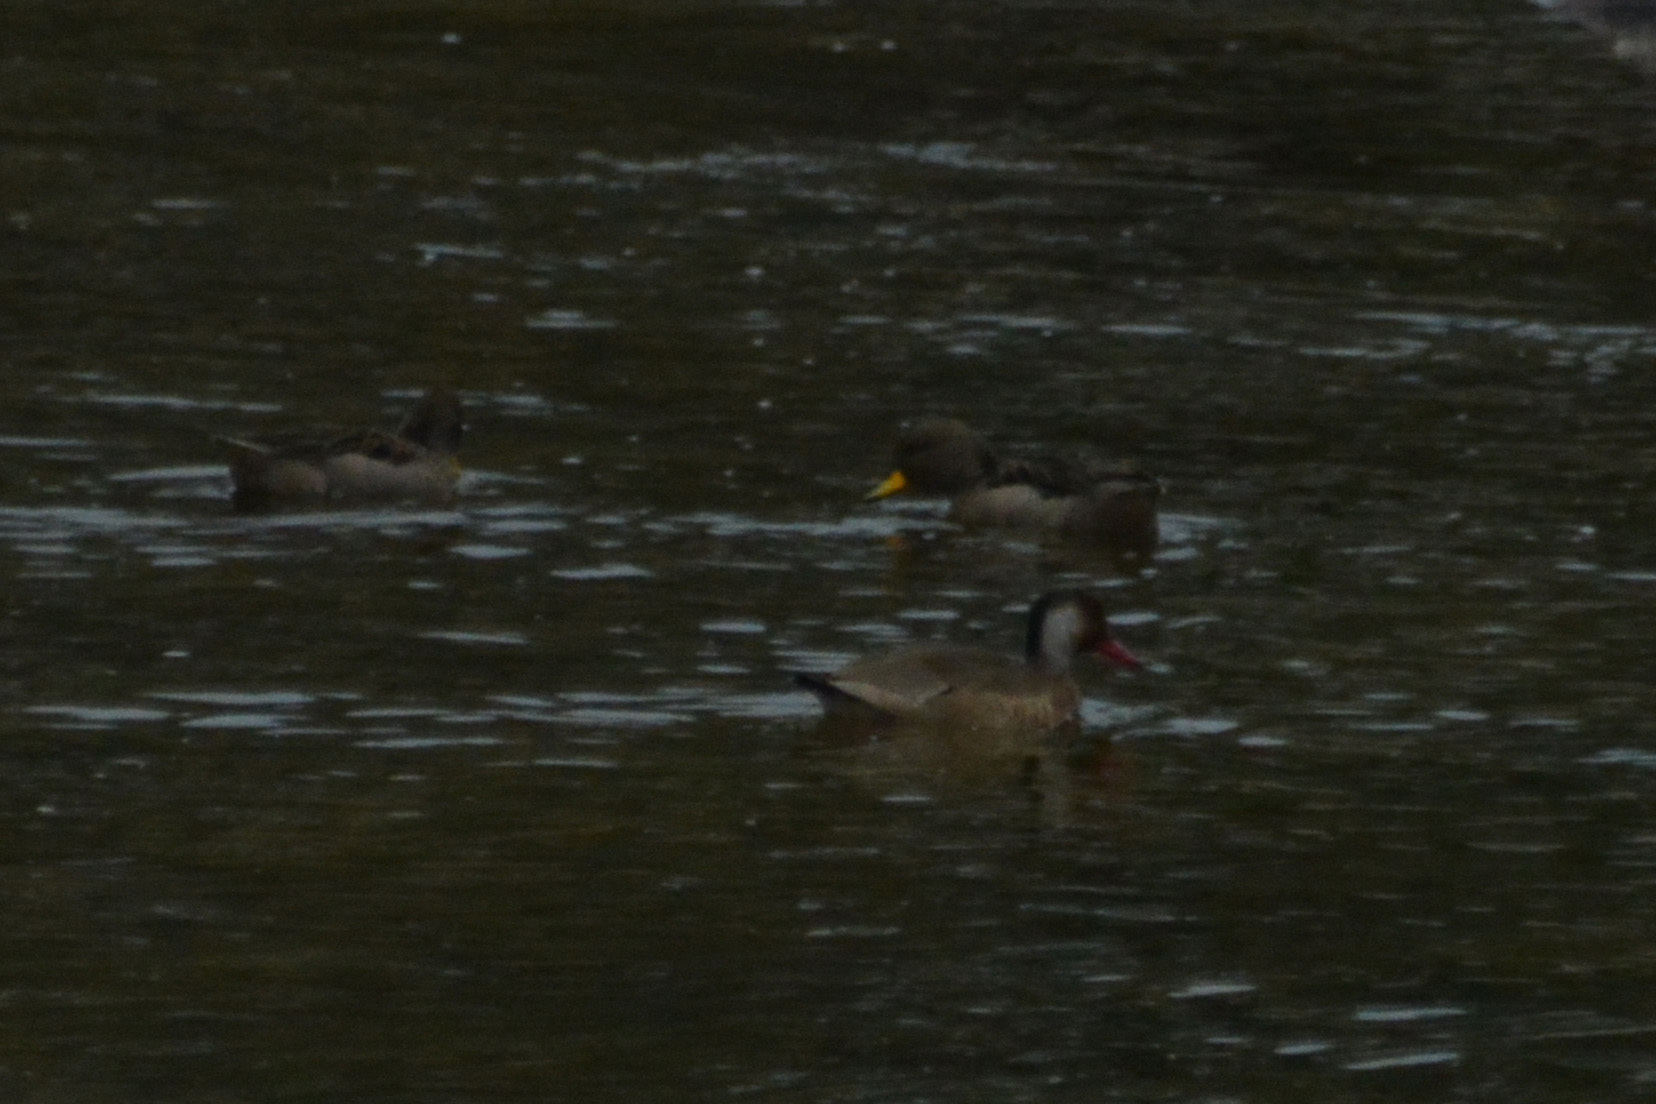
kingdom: Animalia
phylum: Chordata
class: Aves
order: Anseriformes
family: Anatidae
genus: Anas
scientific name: Anas flavirostris
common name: Yellow-billed teal
